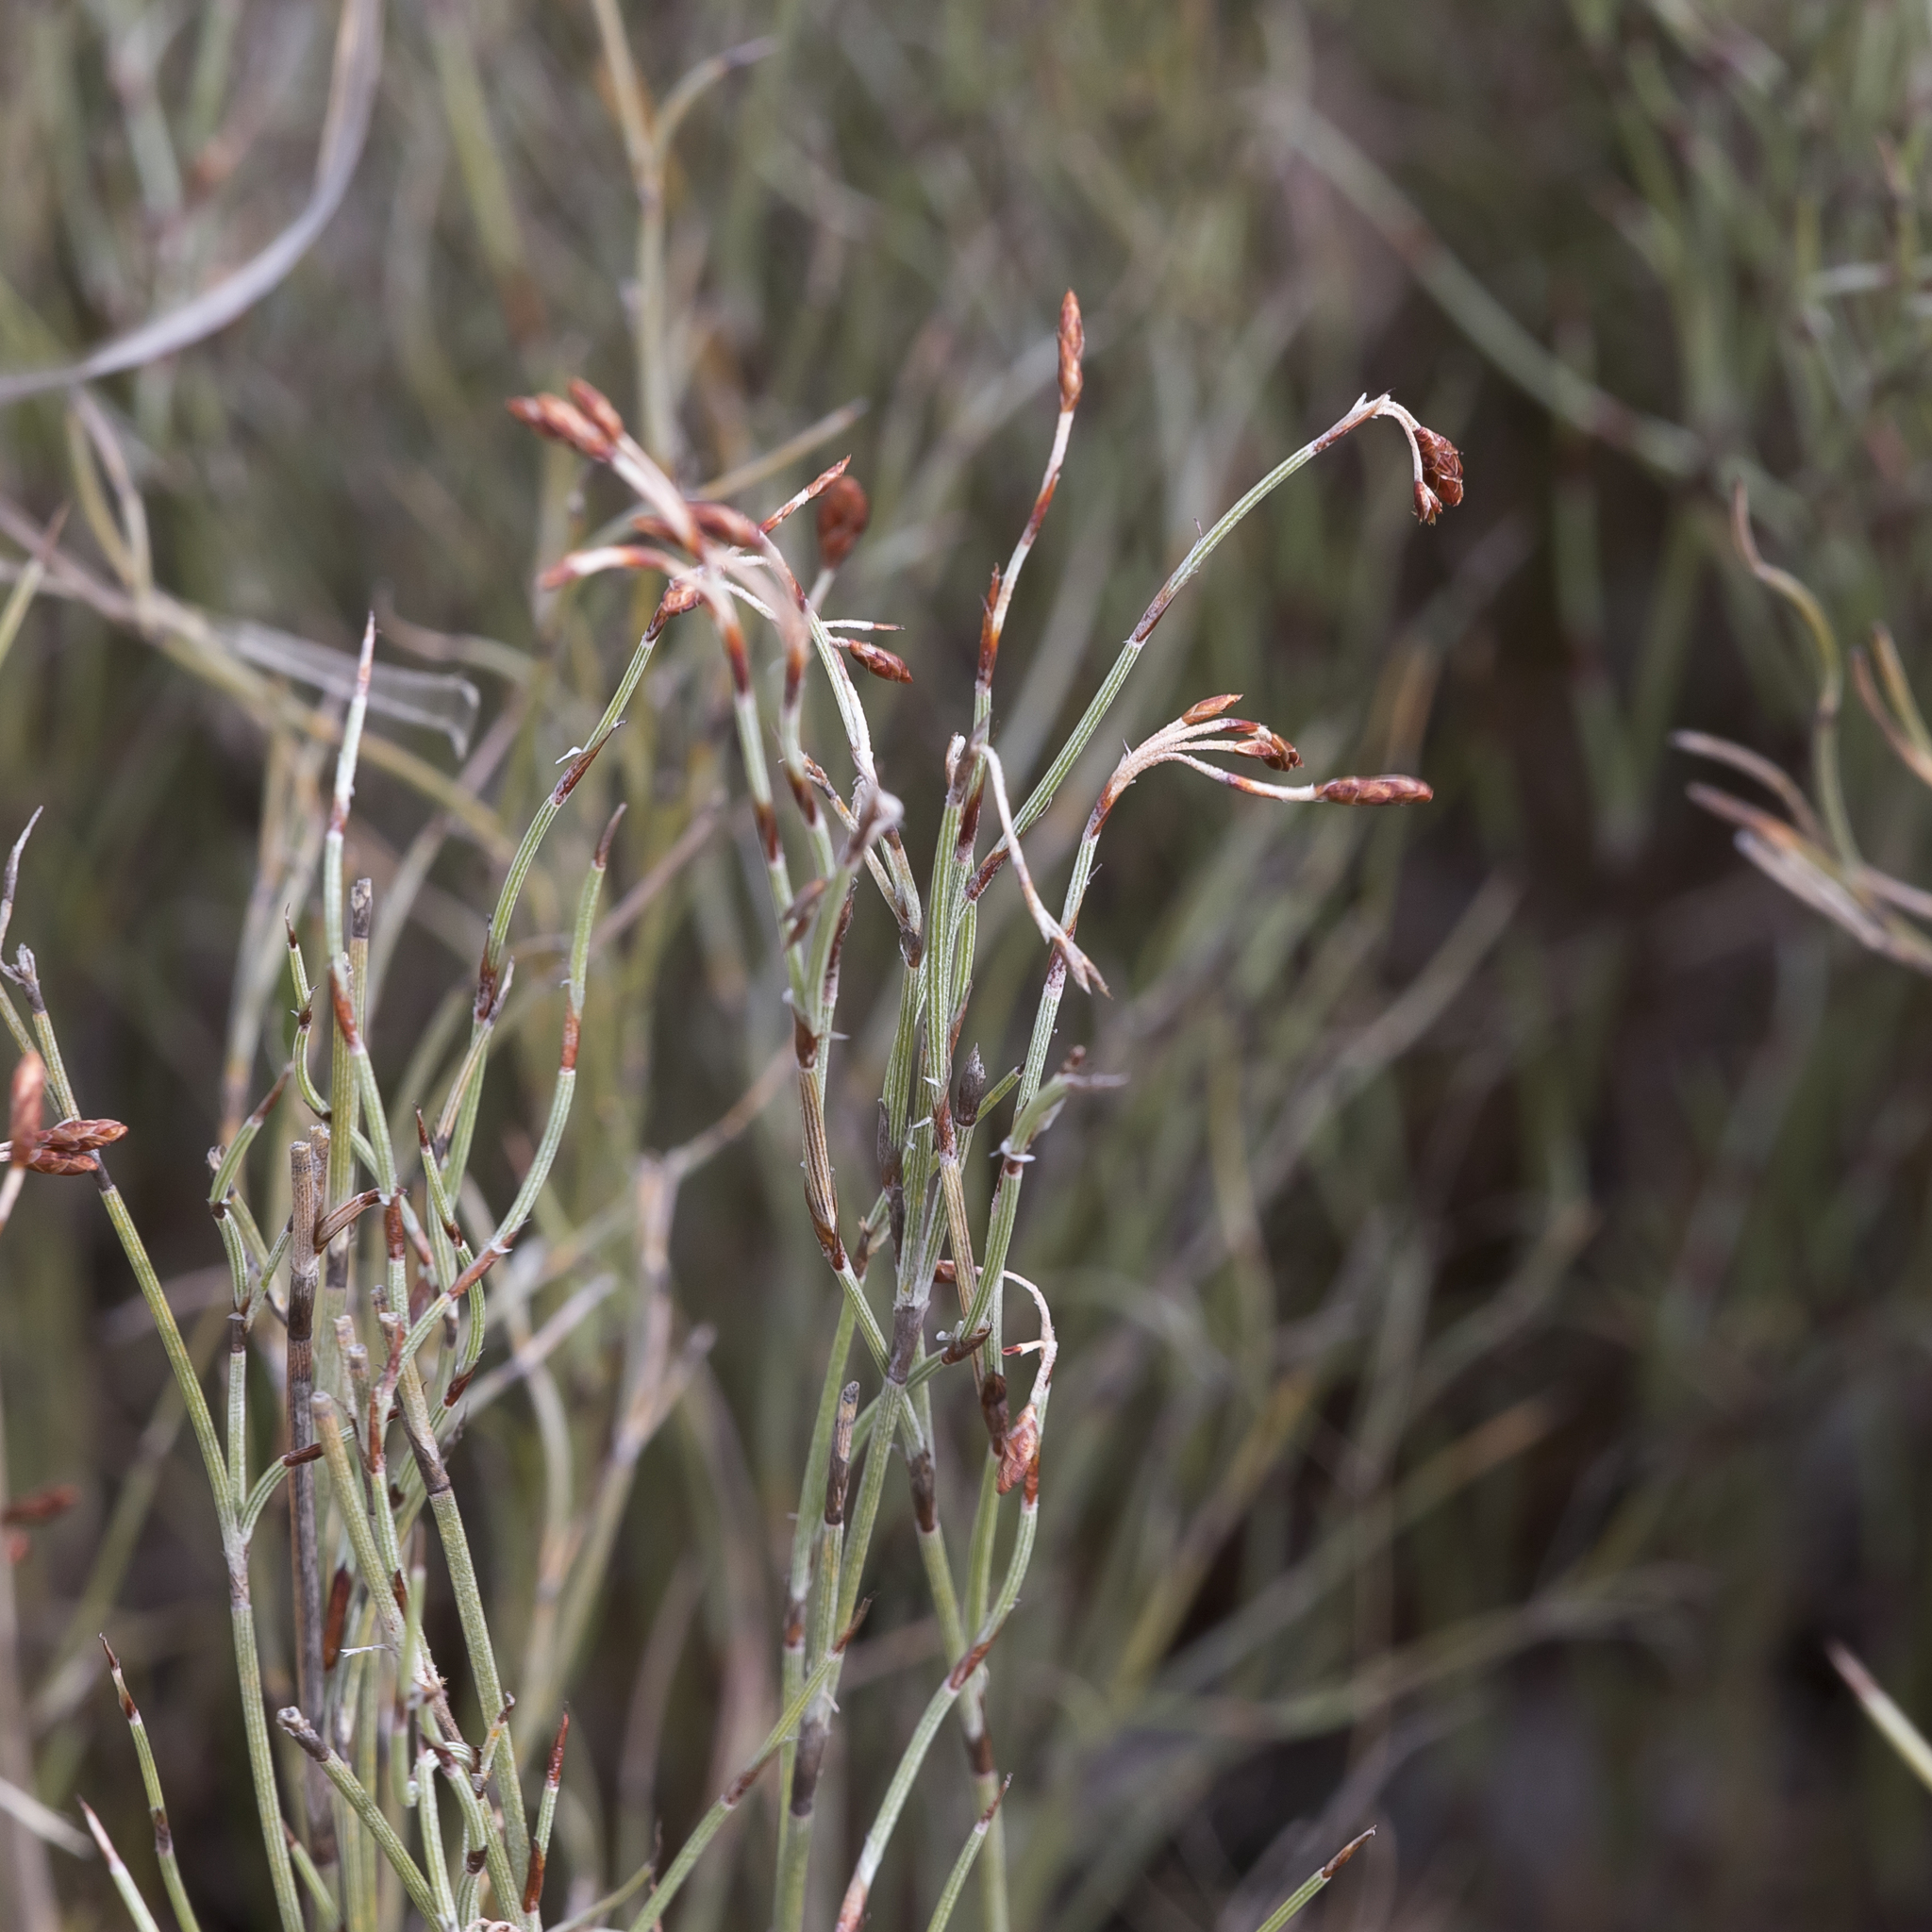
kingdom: Plantae
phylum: Tracheophyta
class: Liliopsida
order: Poales
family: Restionaceae
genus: Hypolaena
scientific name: Hypolaena fastigiata
